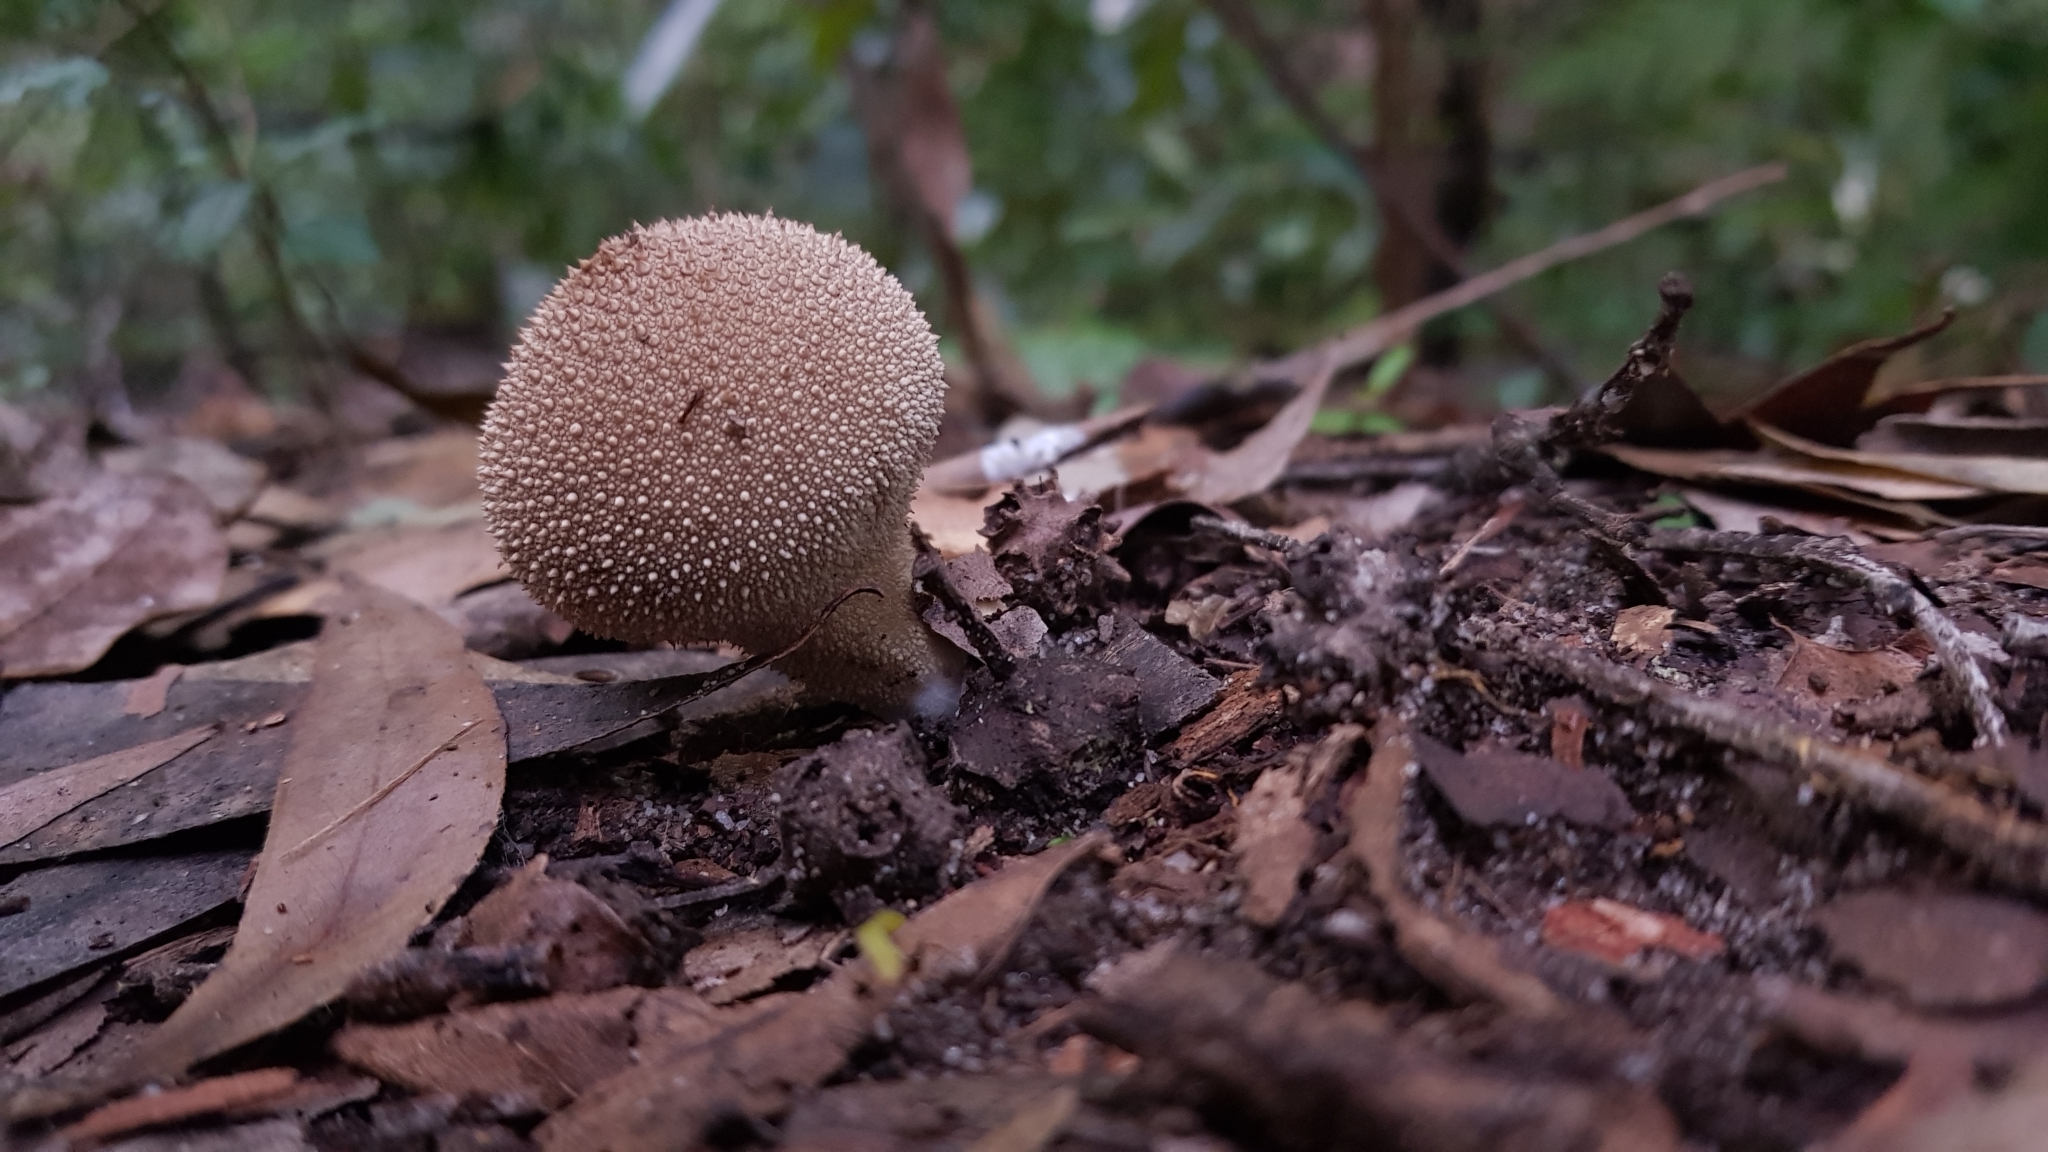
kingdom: Fungi
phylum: Basidiomycota
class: Agaricomycetes
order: Agaricales
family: Lycoperdaceae
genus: Lycoperdon
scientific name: Lycoperdon perlatum
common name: Common puffball
